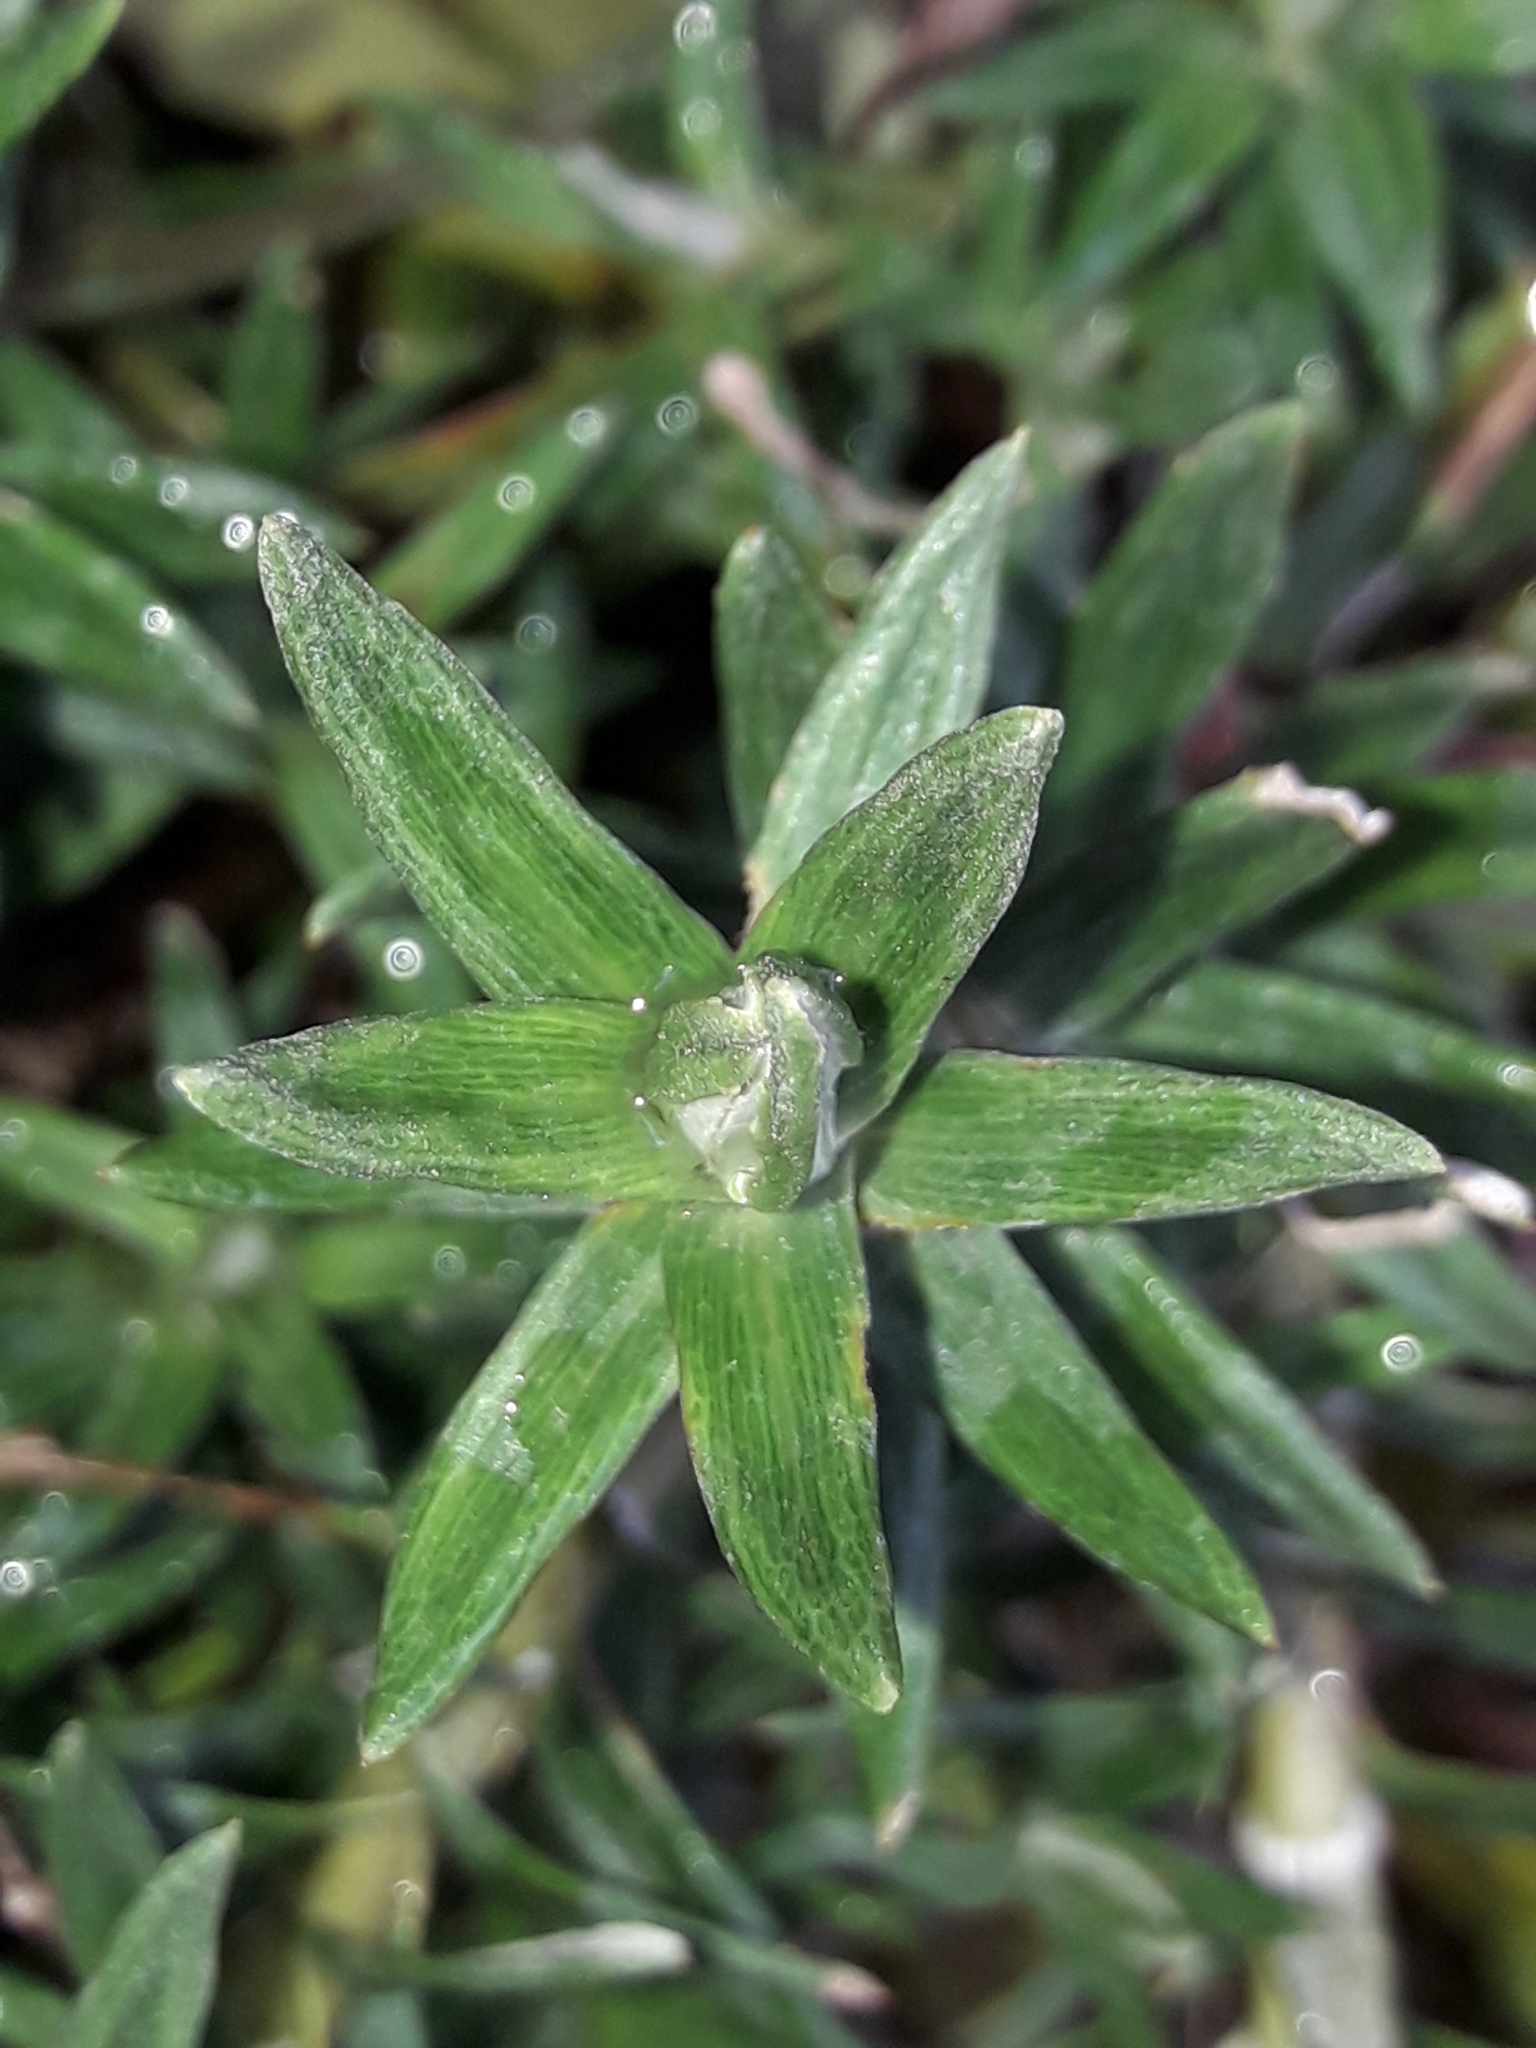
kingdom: Plantae
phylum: Tracheophyta
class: Magnoliopsida
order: Asterales
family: Asteraceae
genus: Celmisia
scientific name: Celmisia walkeri
